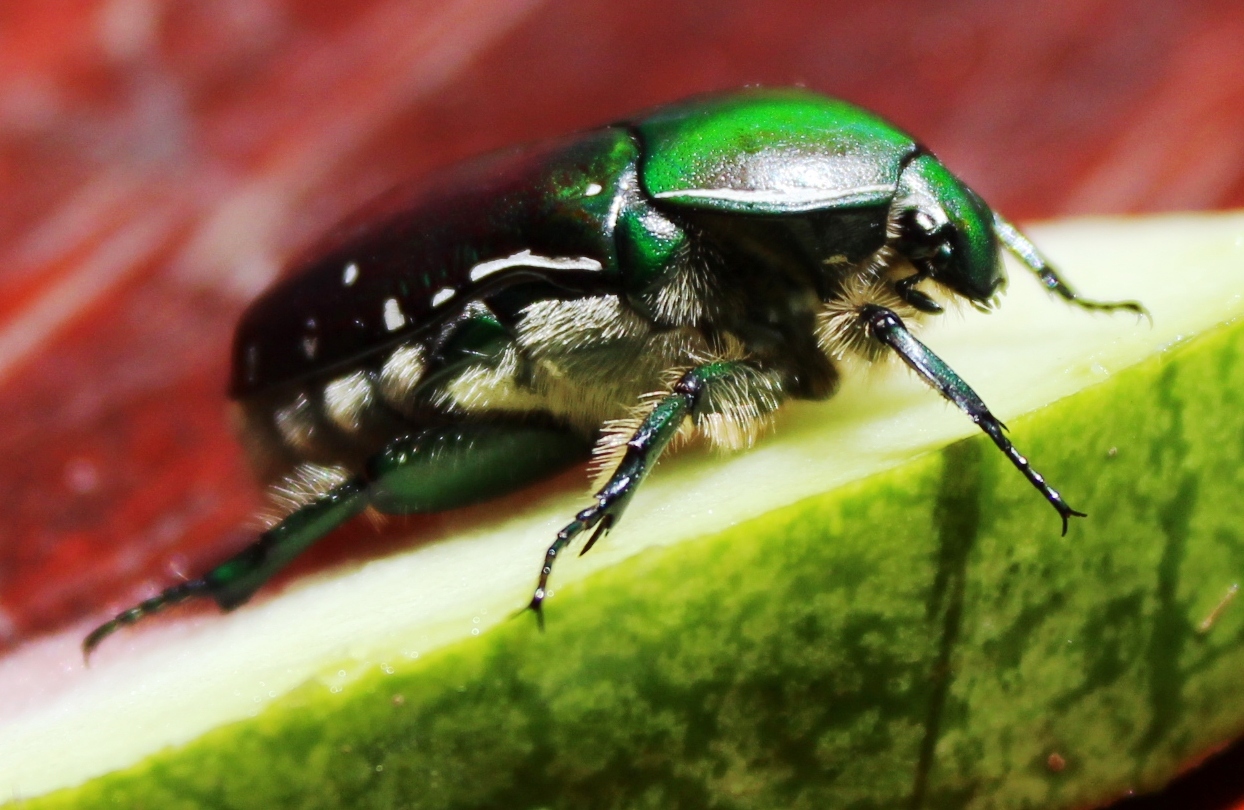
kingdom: Animalia
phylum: Arthropoda
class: Insecta
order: Coleoptera
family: Scarabaeidae
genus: Rhabdotis
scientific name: Rhabdotis aulica
